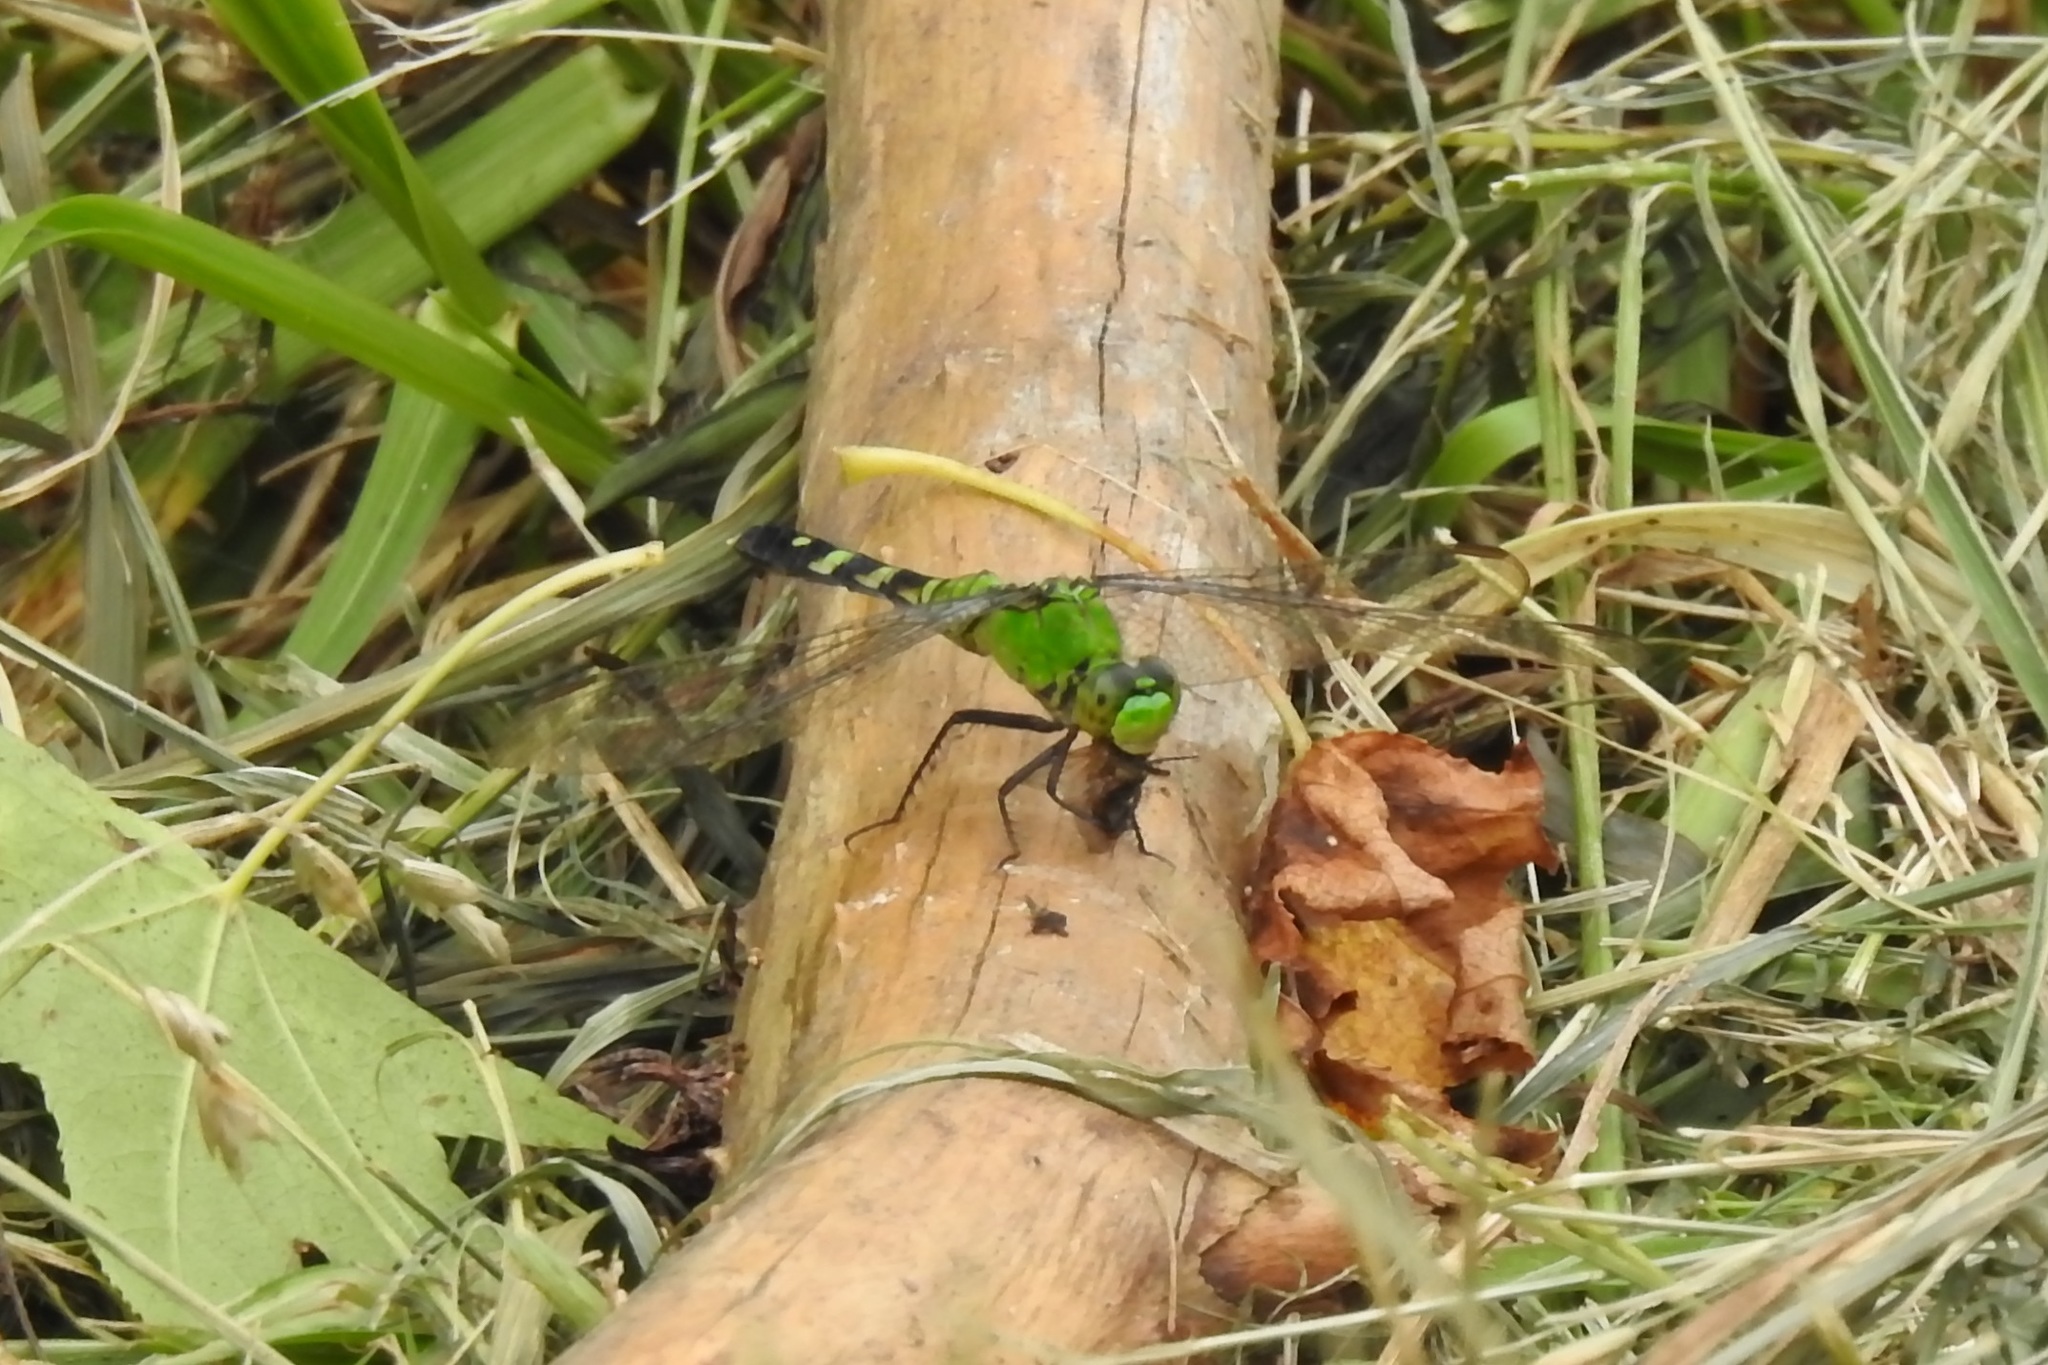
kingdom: Animalia
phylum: Arthropoda
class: Insecta
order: Odonata
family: Libellulidae
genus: Erythemis
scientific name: Erythemis simplicicollis
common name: Eastern pondhawk
